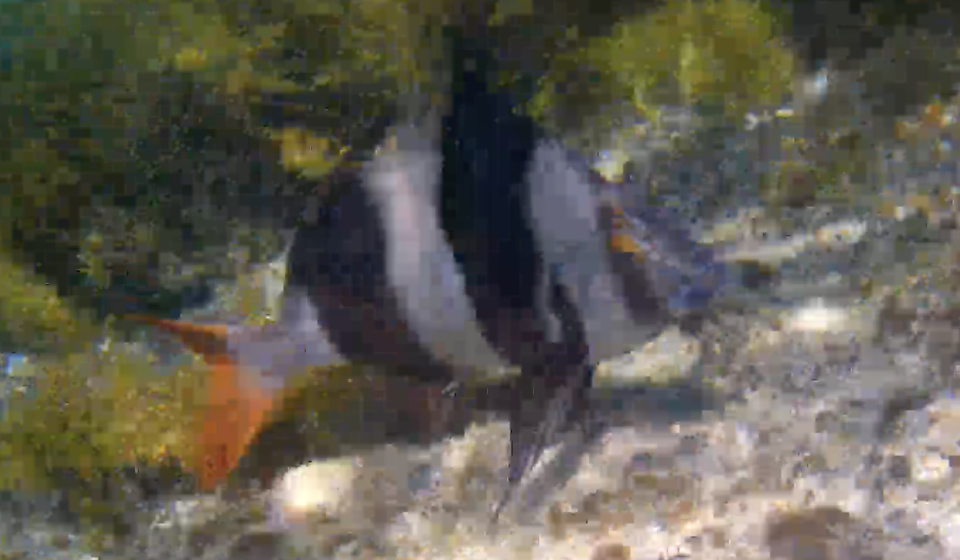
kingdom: Animalia
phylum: Chordata
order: Perciformes
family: Latridae
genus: Pseudogoniistius
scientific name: Pseudogoniistius nigripes
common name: Black-striped morwong
